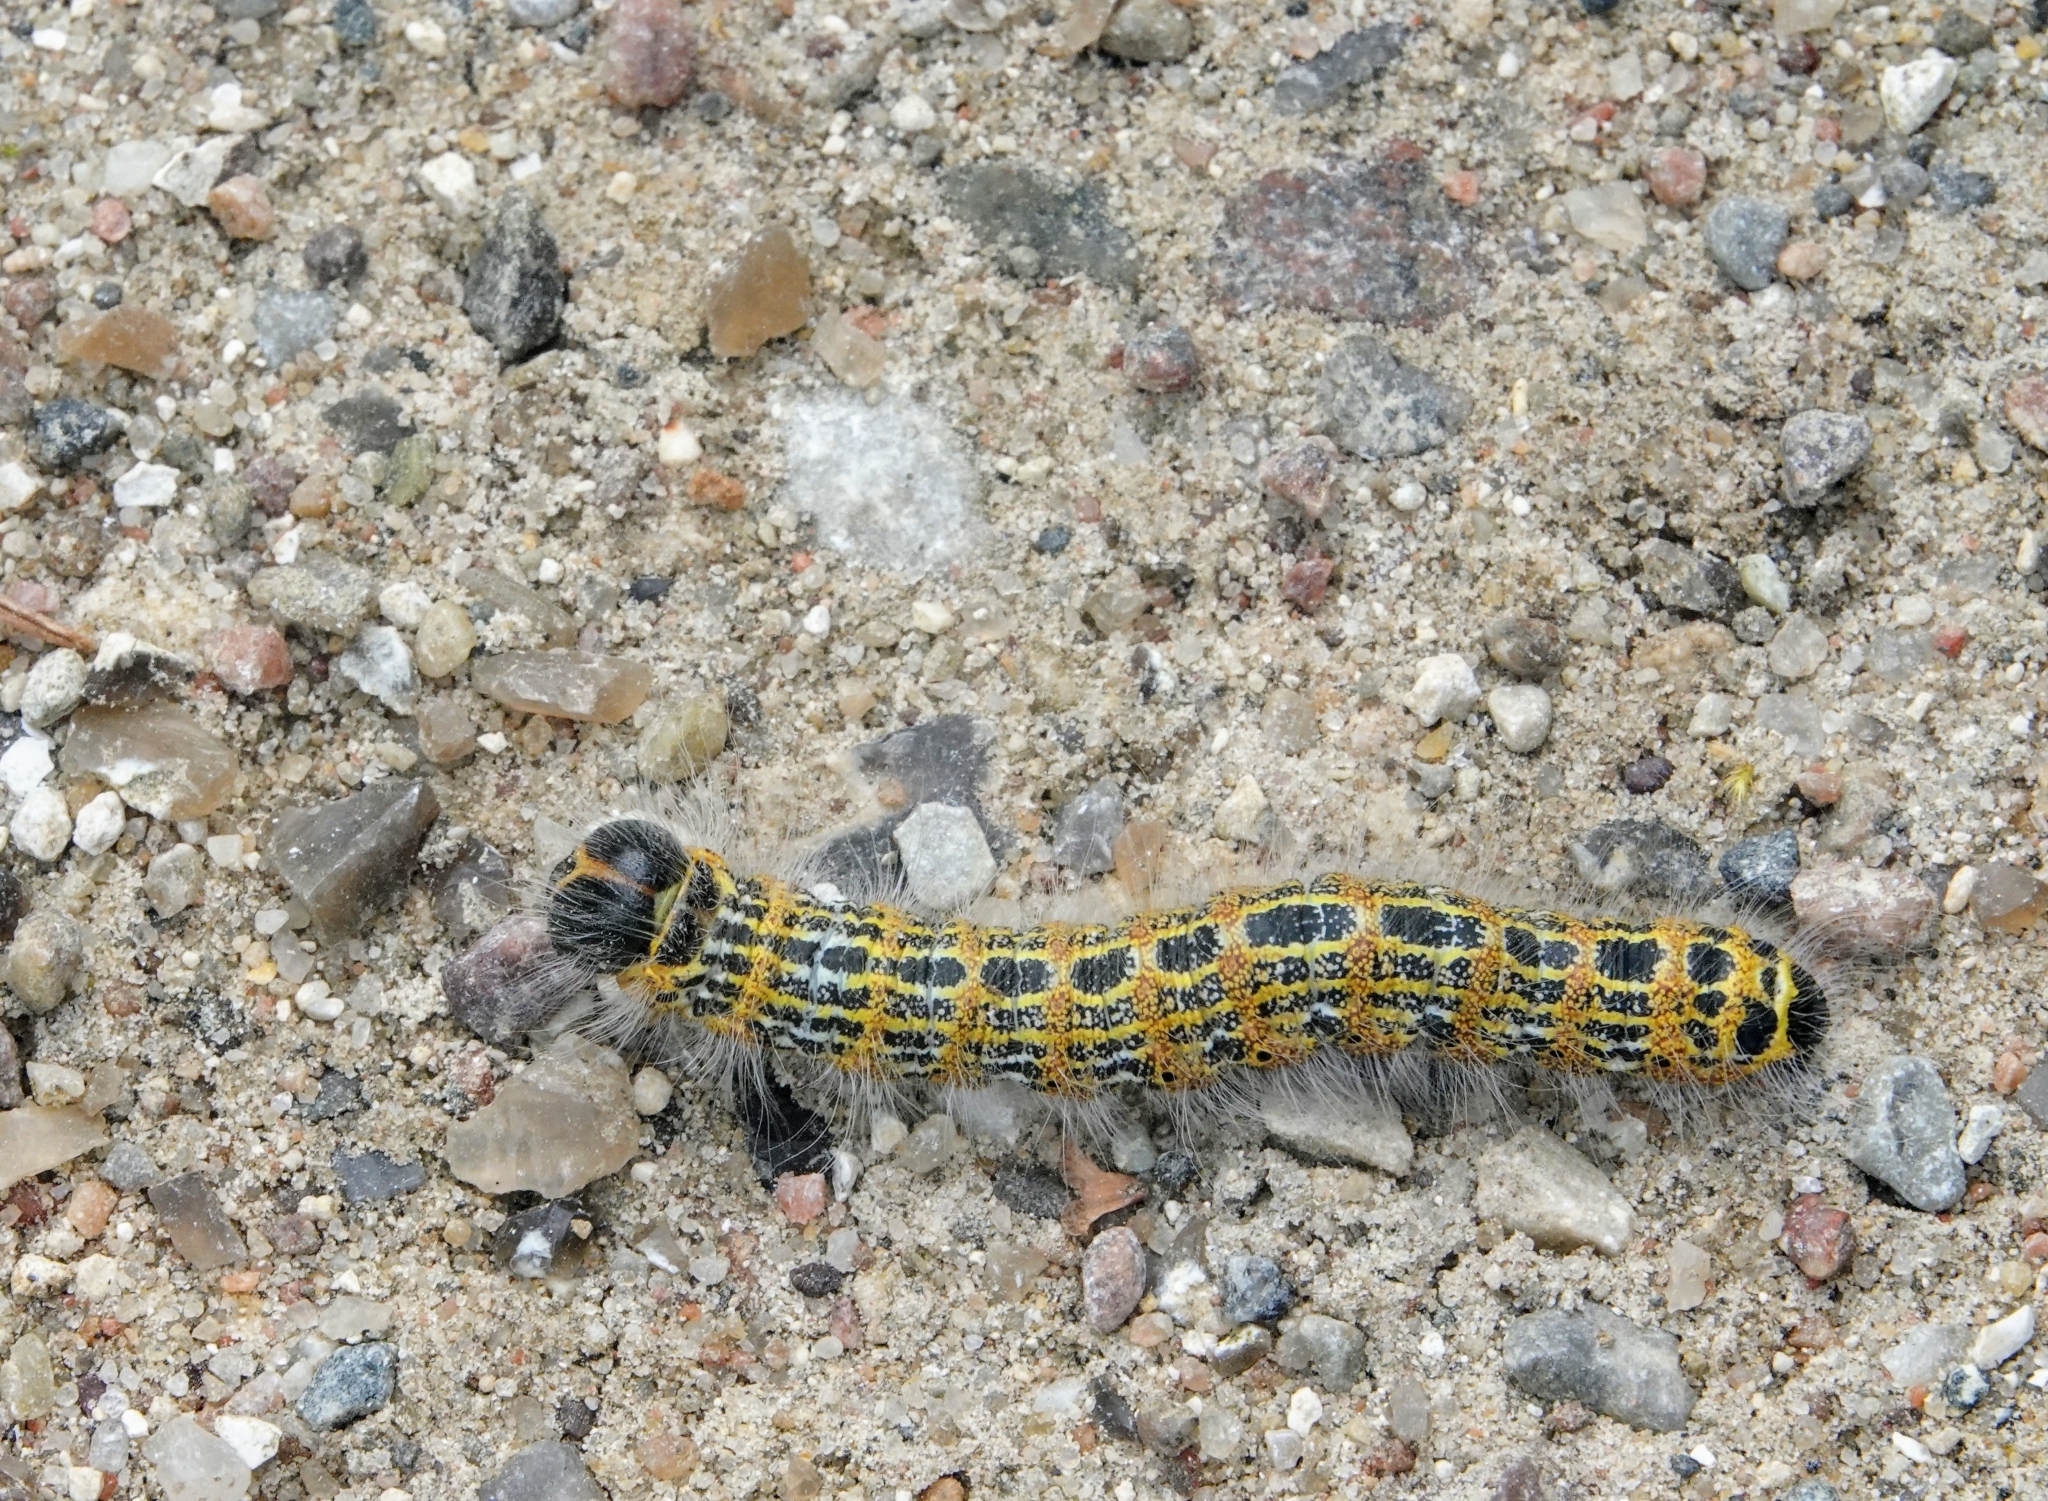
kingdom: Animalia
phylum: Arthropoda
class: Insecta
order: Lepidoptera
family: Notodontidae
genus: Phalera
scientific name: Phalera bucephala
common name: Buff-tip
